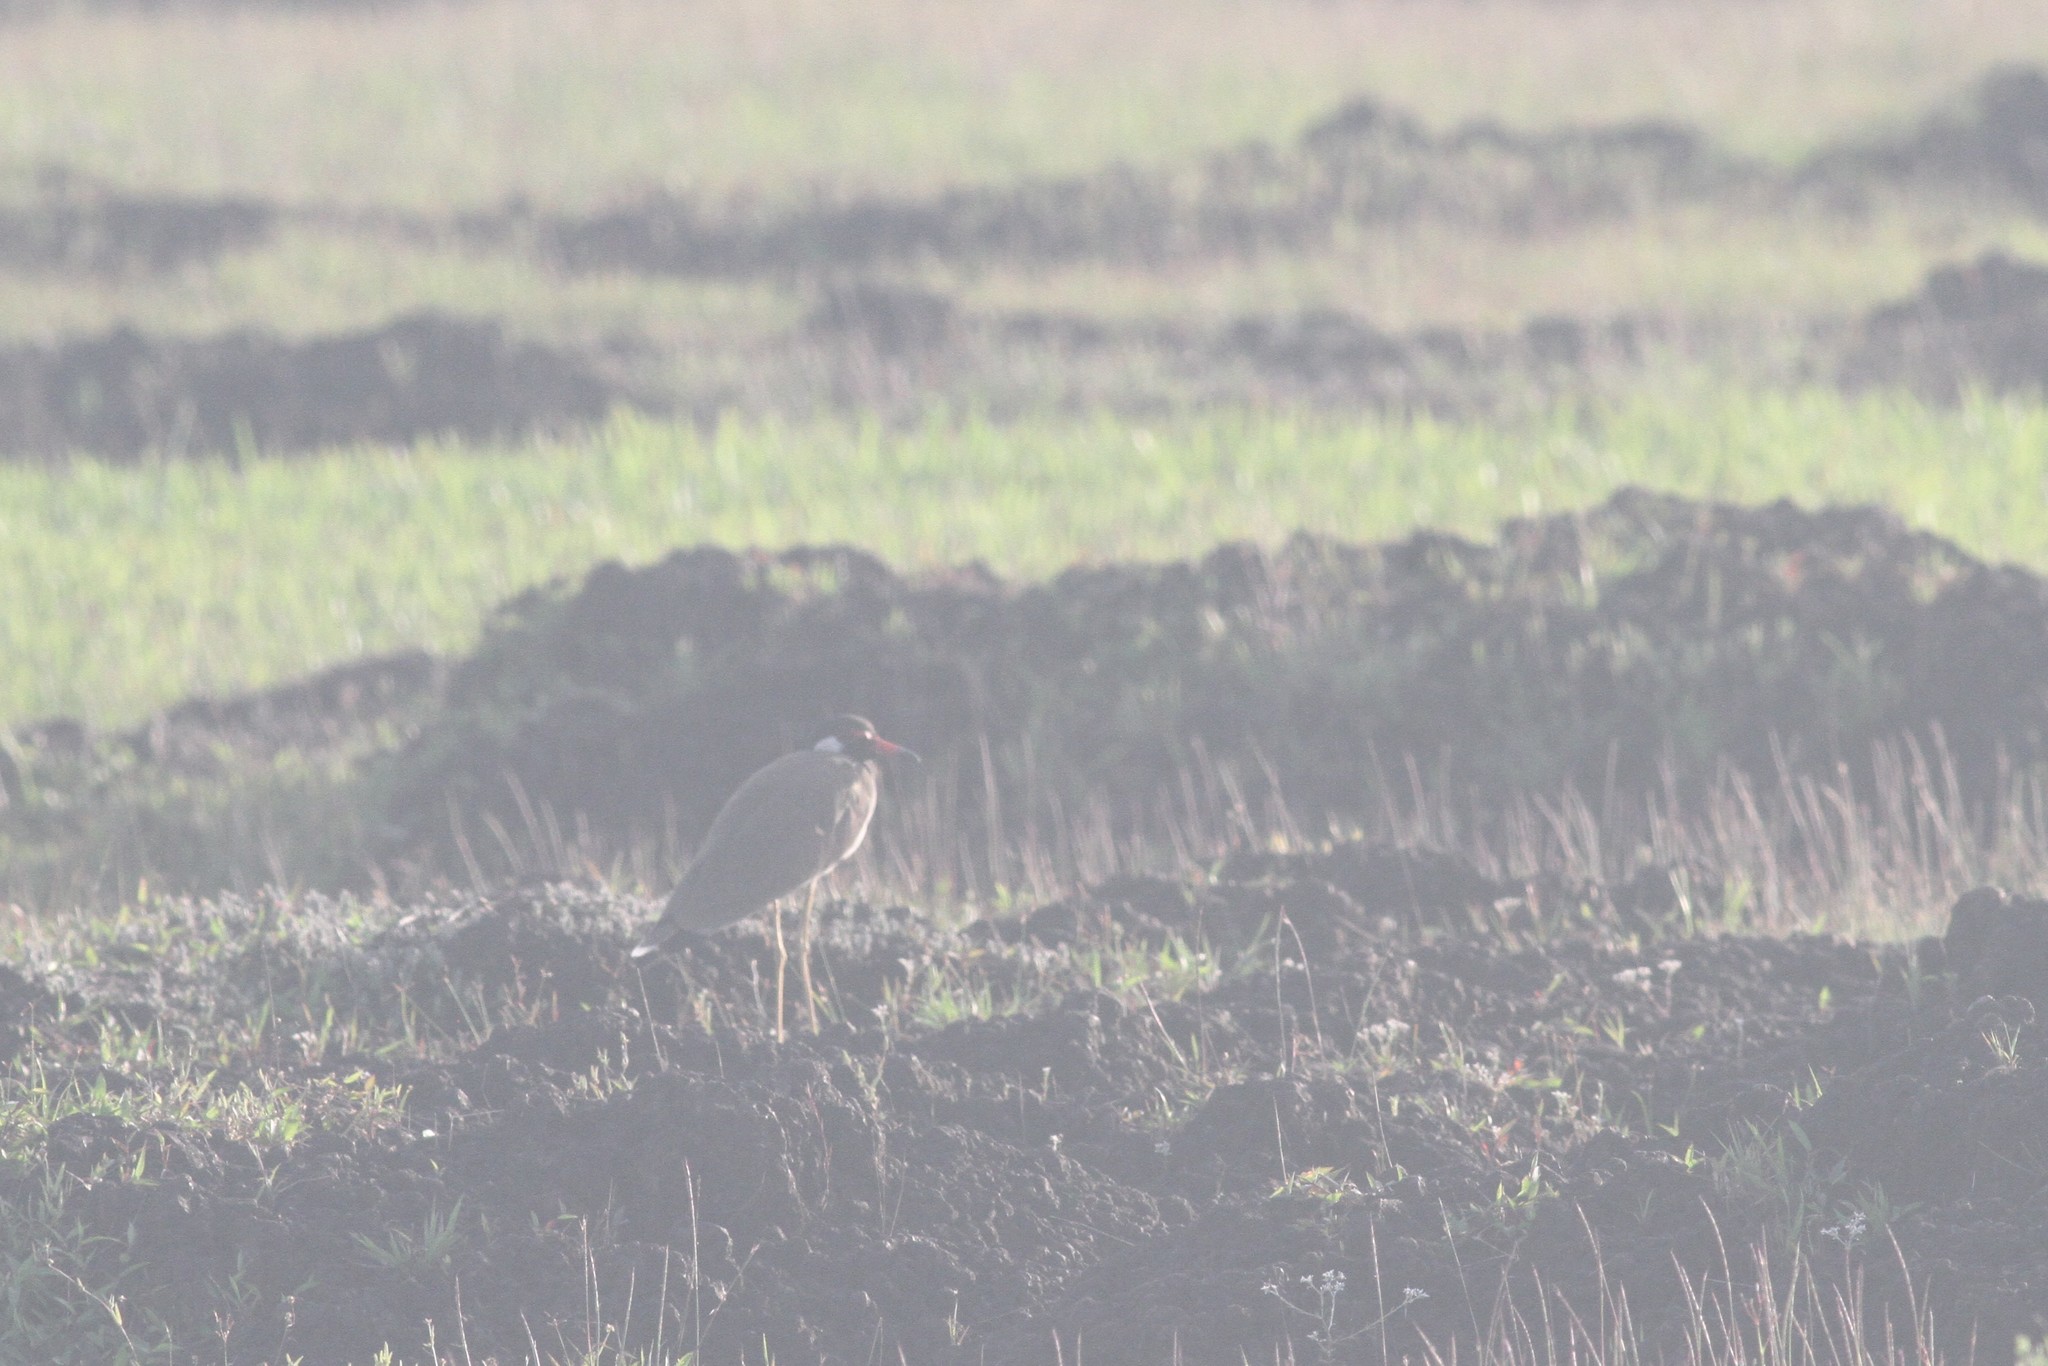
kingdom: Animalia
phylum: Chordata
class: Aves
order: Charadriiformes
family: Charadriidae
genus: Vanellus
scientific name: Vanellus indicus
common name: Red-wattled lapwing
